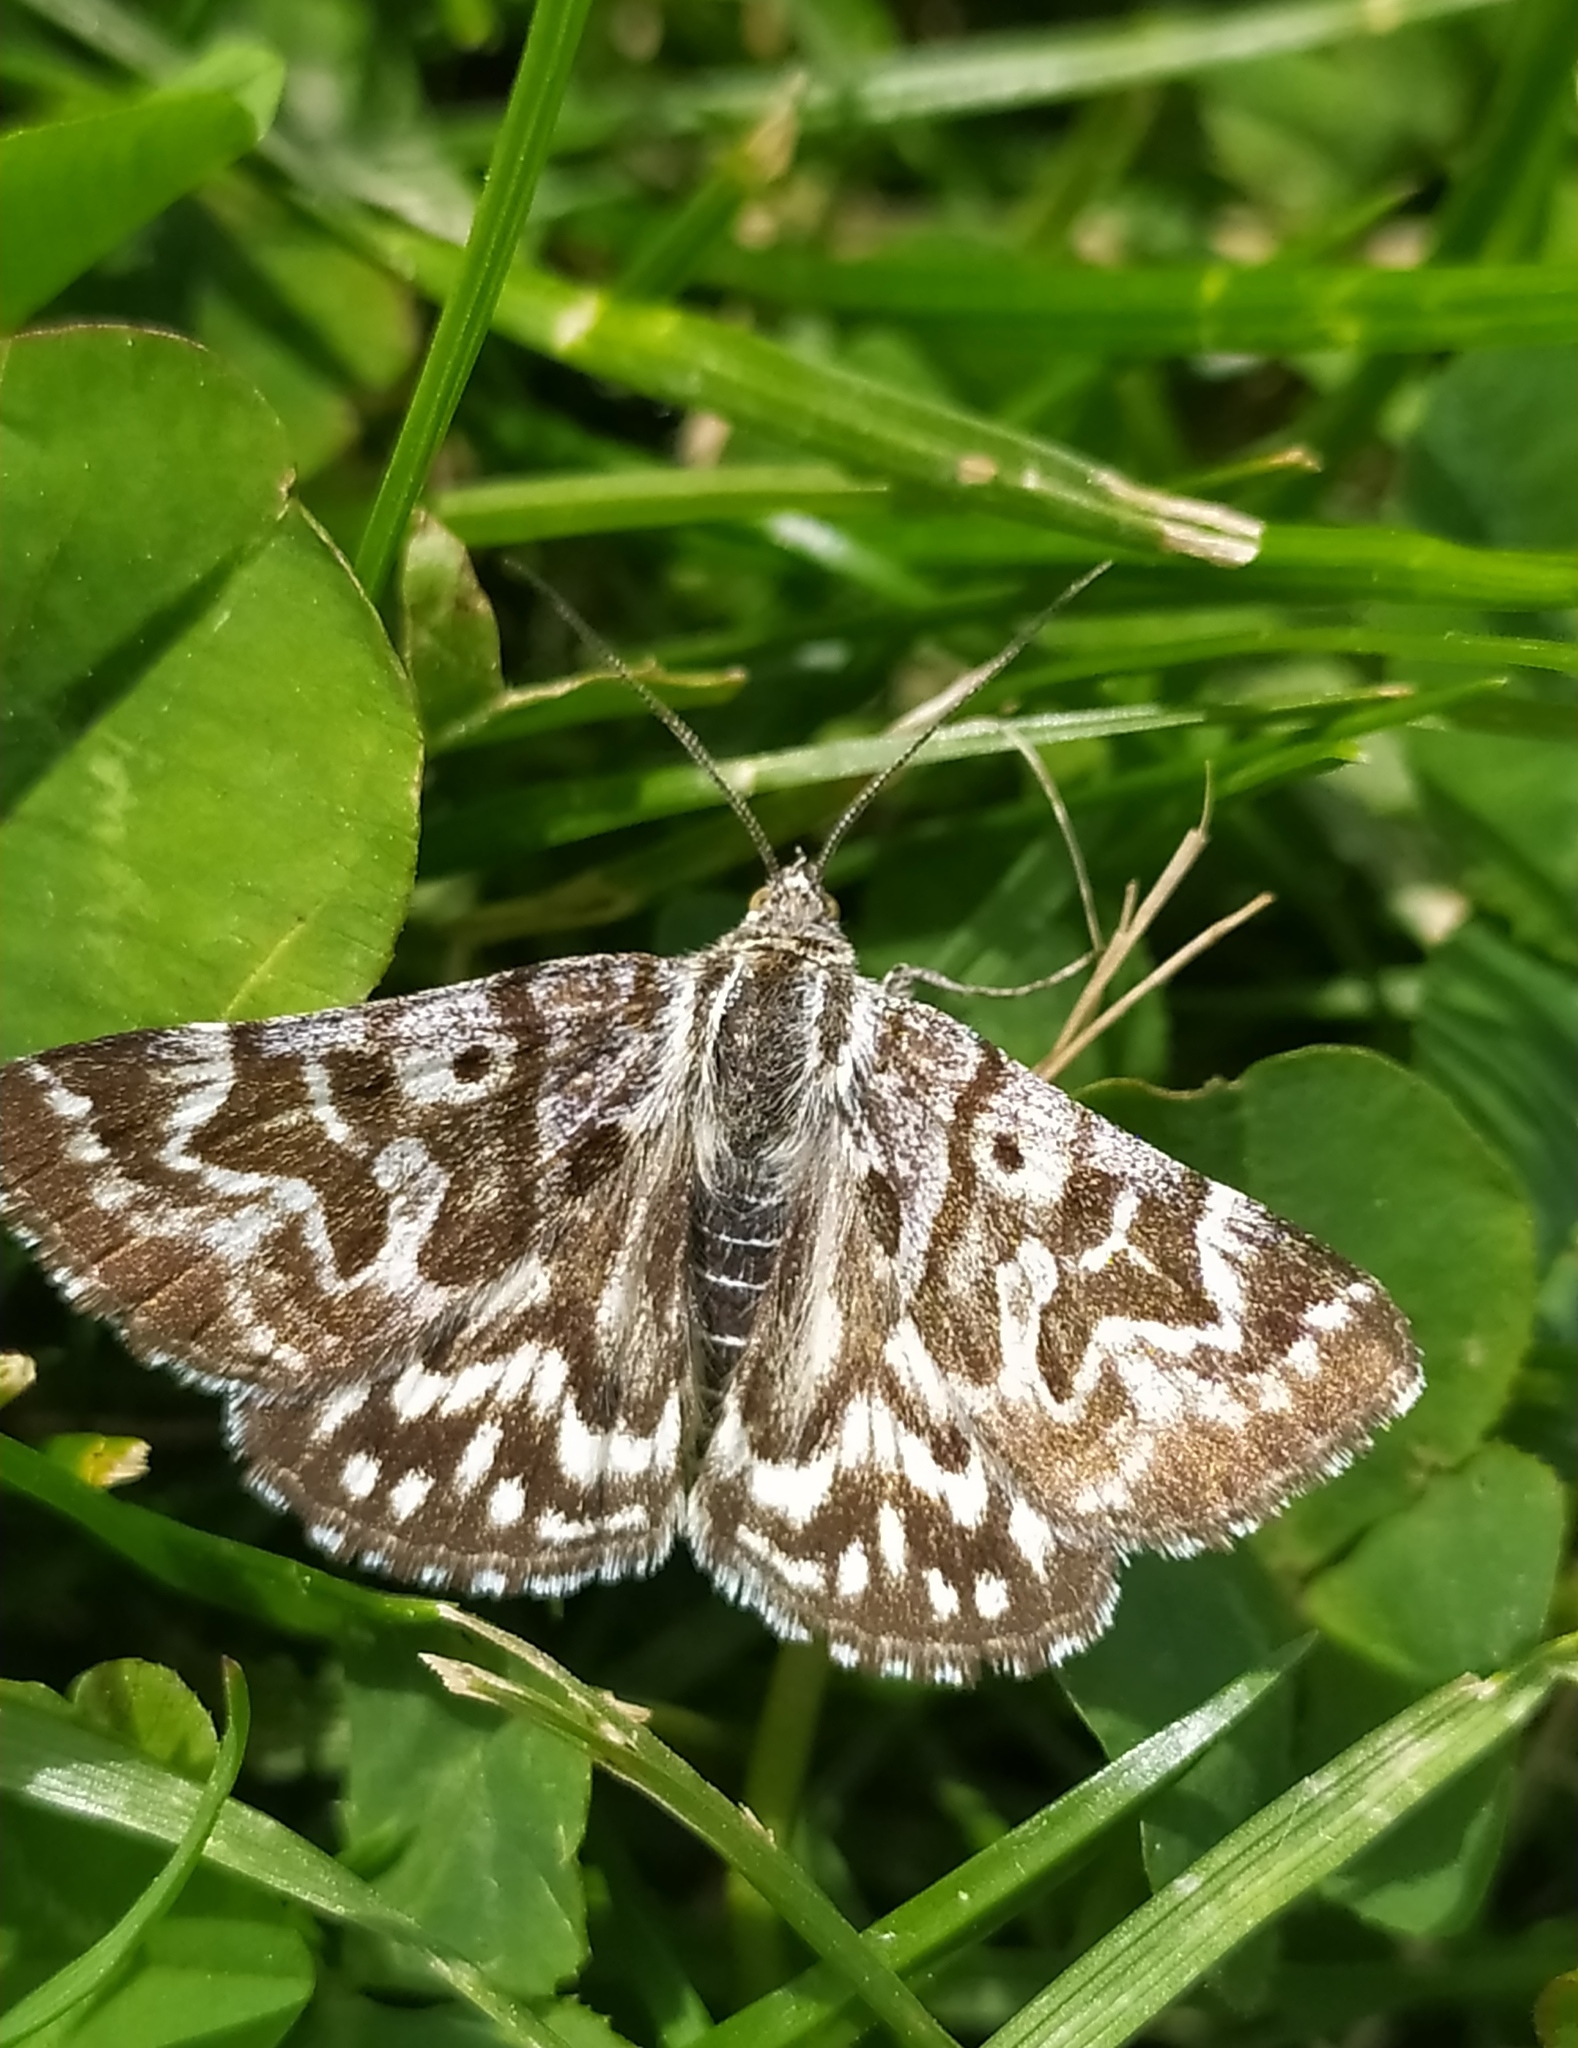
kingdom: Animalia
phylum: Arthropoda
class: Insecta
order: Lepidoptera
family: Erebidae
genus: Callistege
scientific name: Callistege mi
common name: Mother shipton
